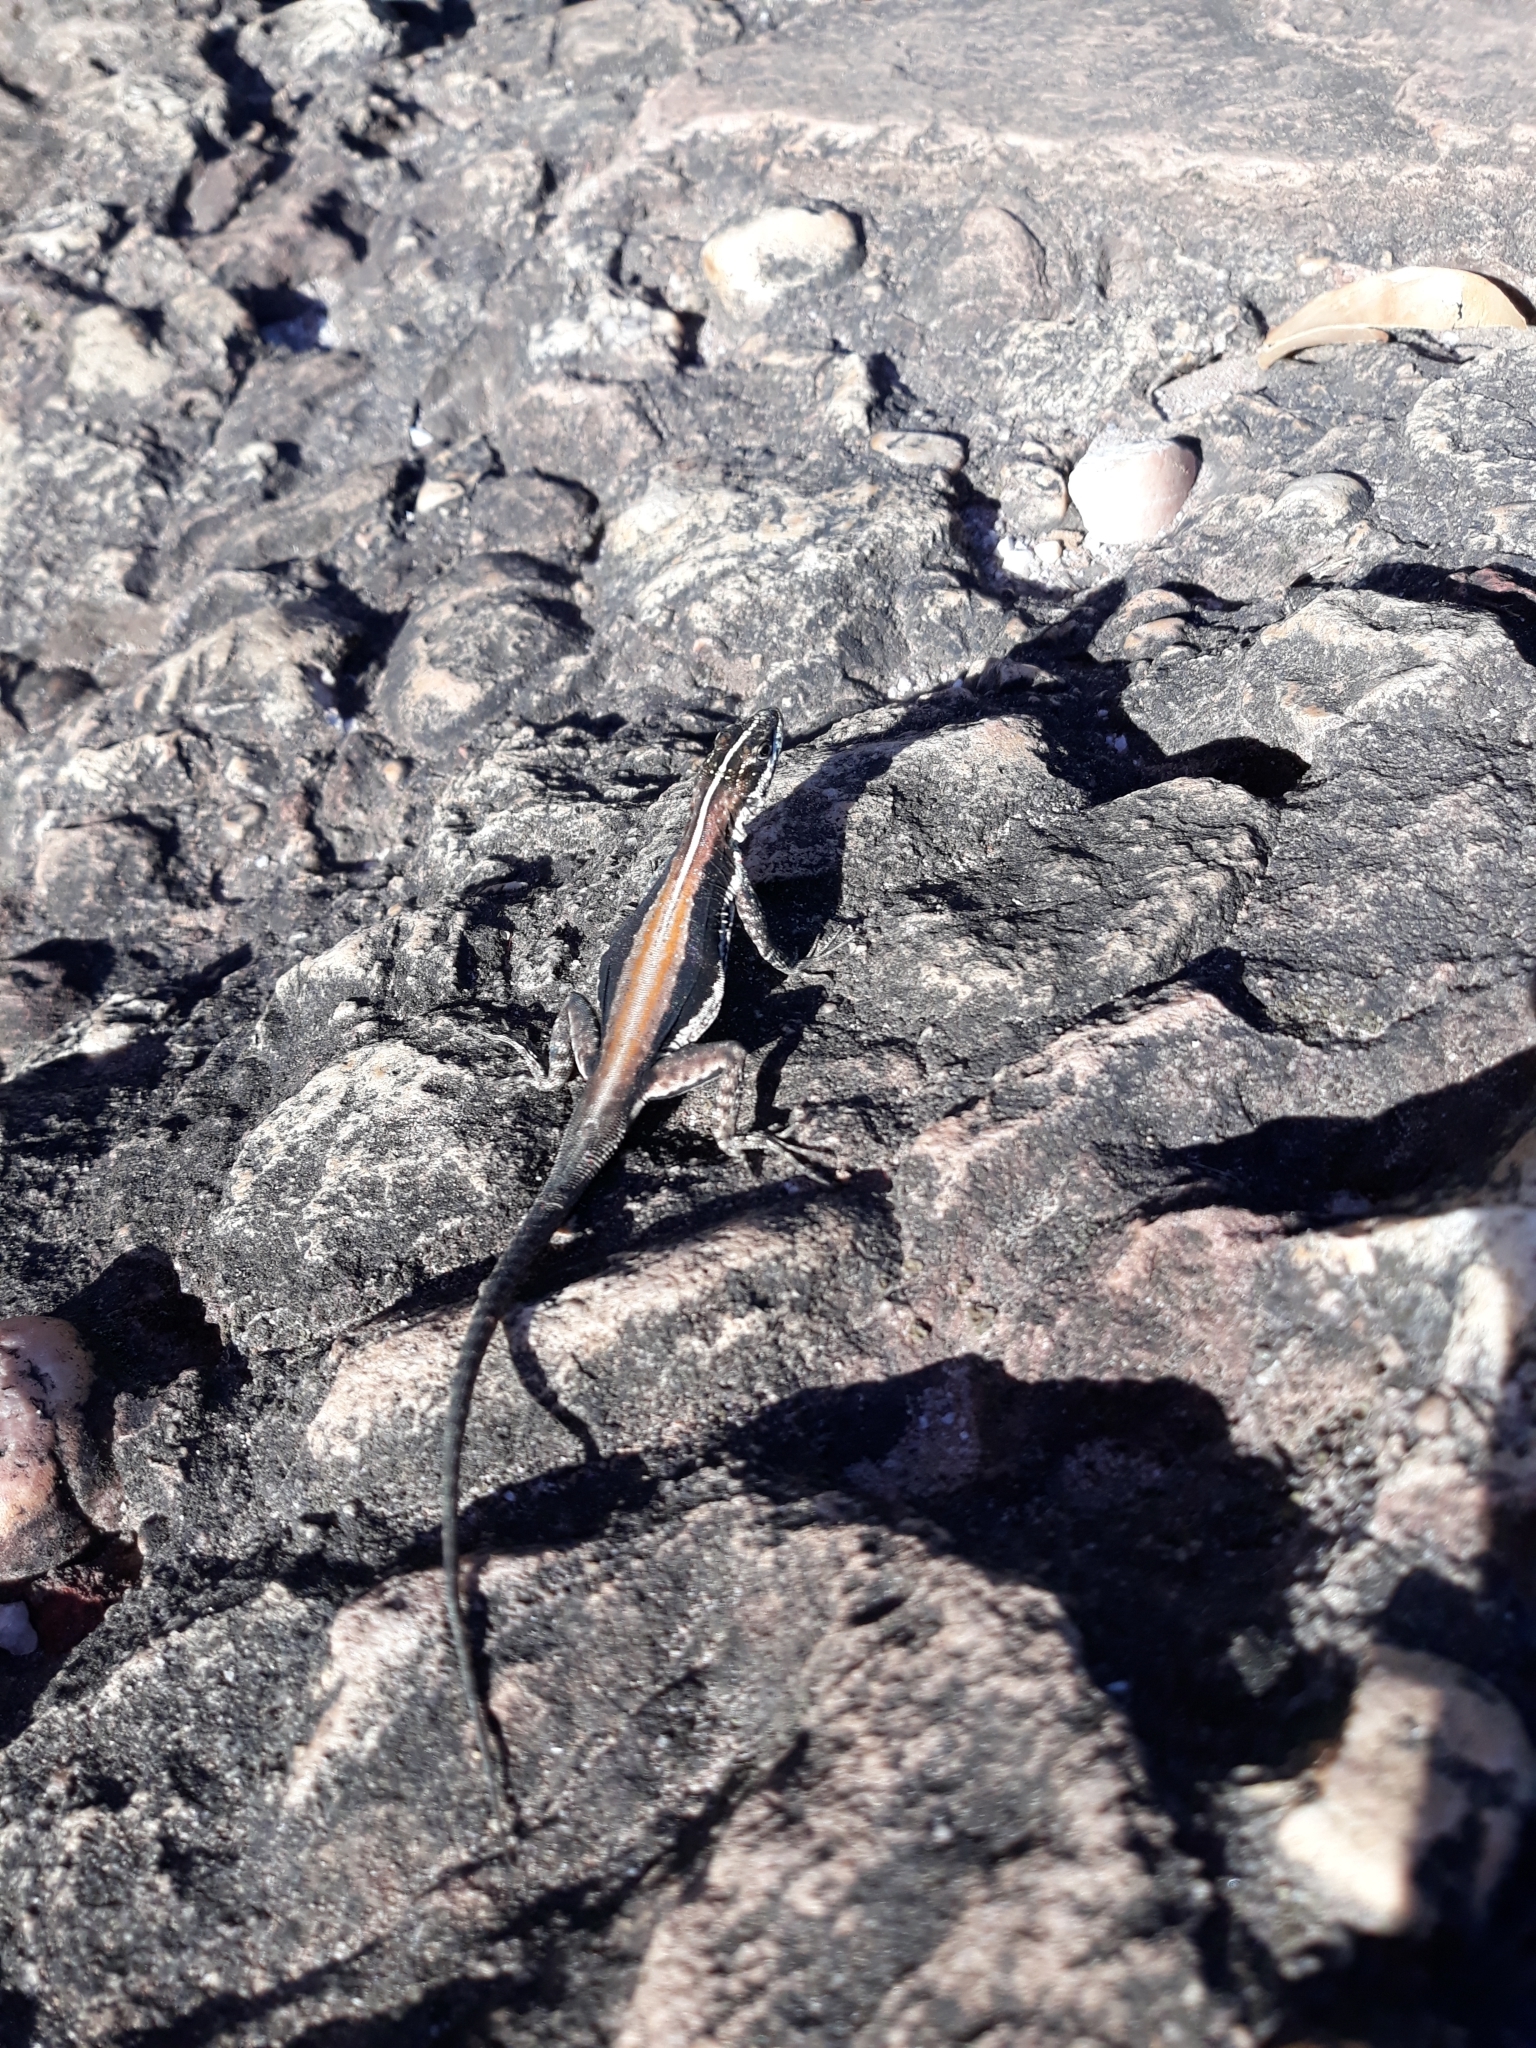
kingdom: Animalia
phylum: Chordata
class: Squamata
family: Tropiduridae
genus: Tropidurus
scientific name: Tropidurus semitaeniatus
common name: Striped lava lizard
